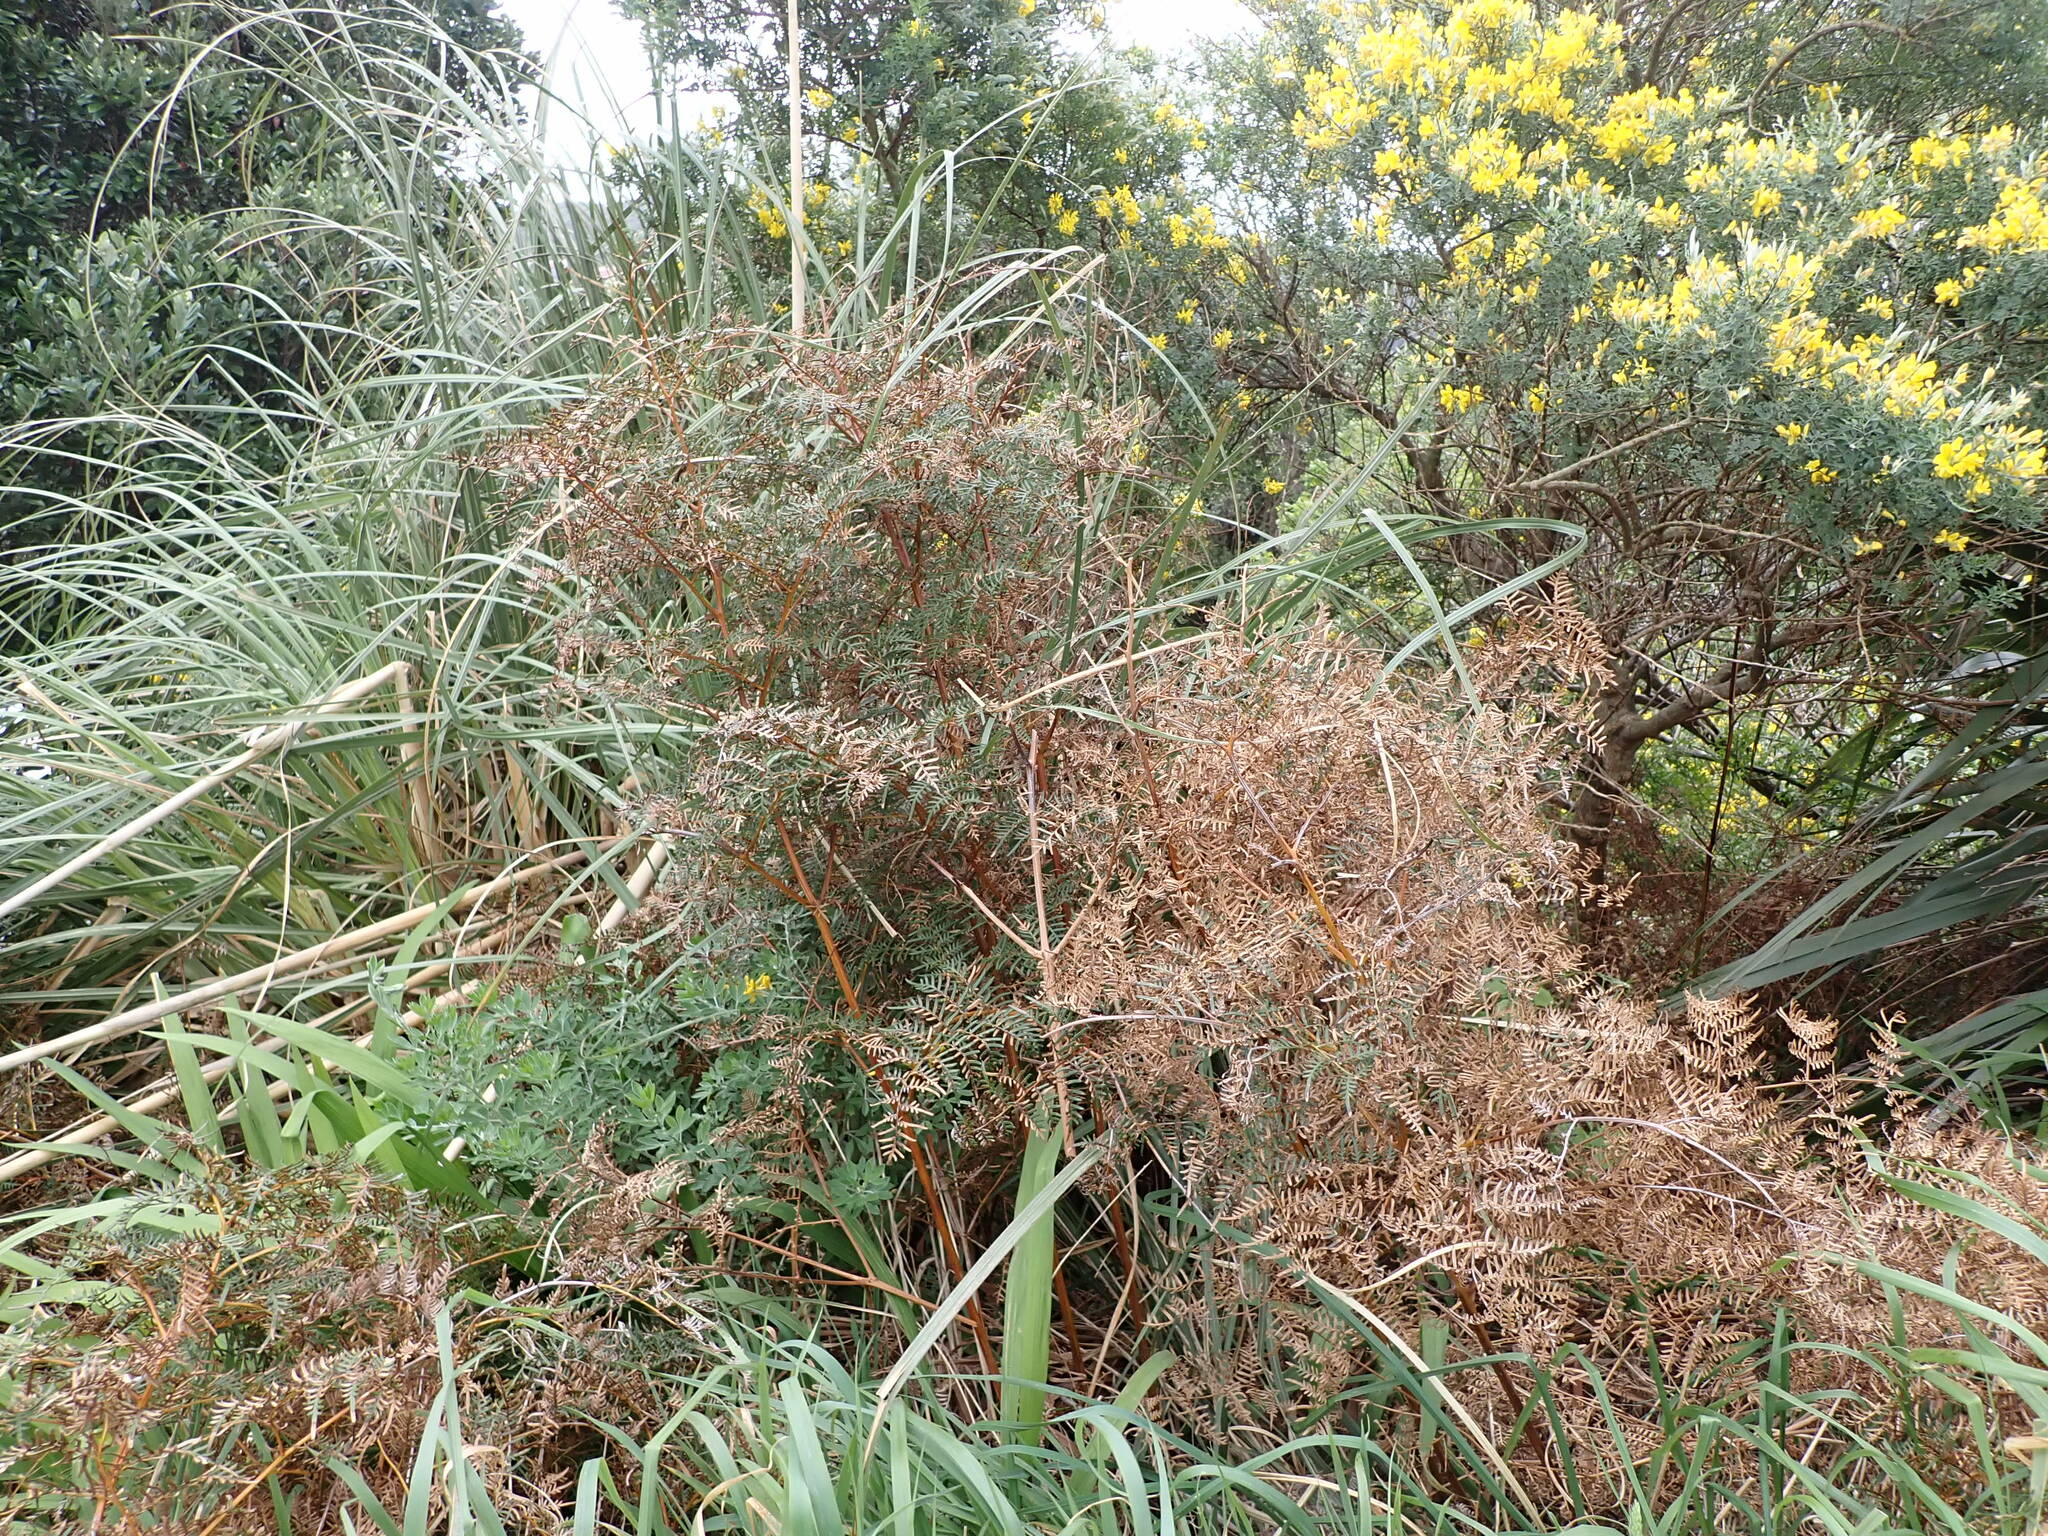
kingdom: Plantae
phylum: Tracheophyta
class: Polypodiopsida
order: Polypodiales
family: Dennstaedtiaceae
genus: Pteridium
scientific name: Pteridium esculentum
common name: Bracken fern
